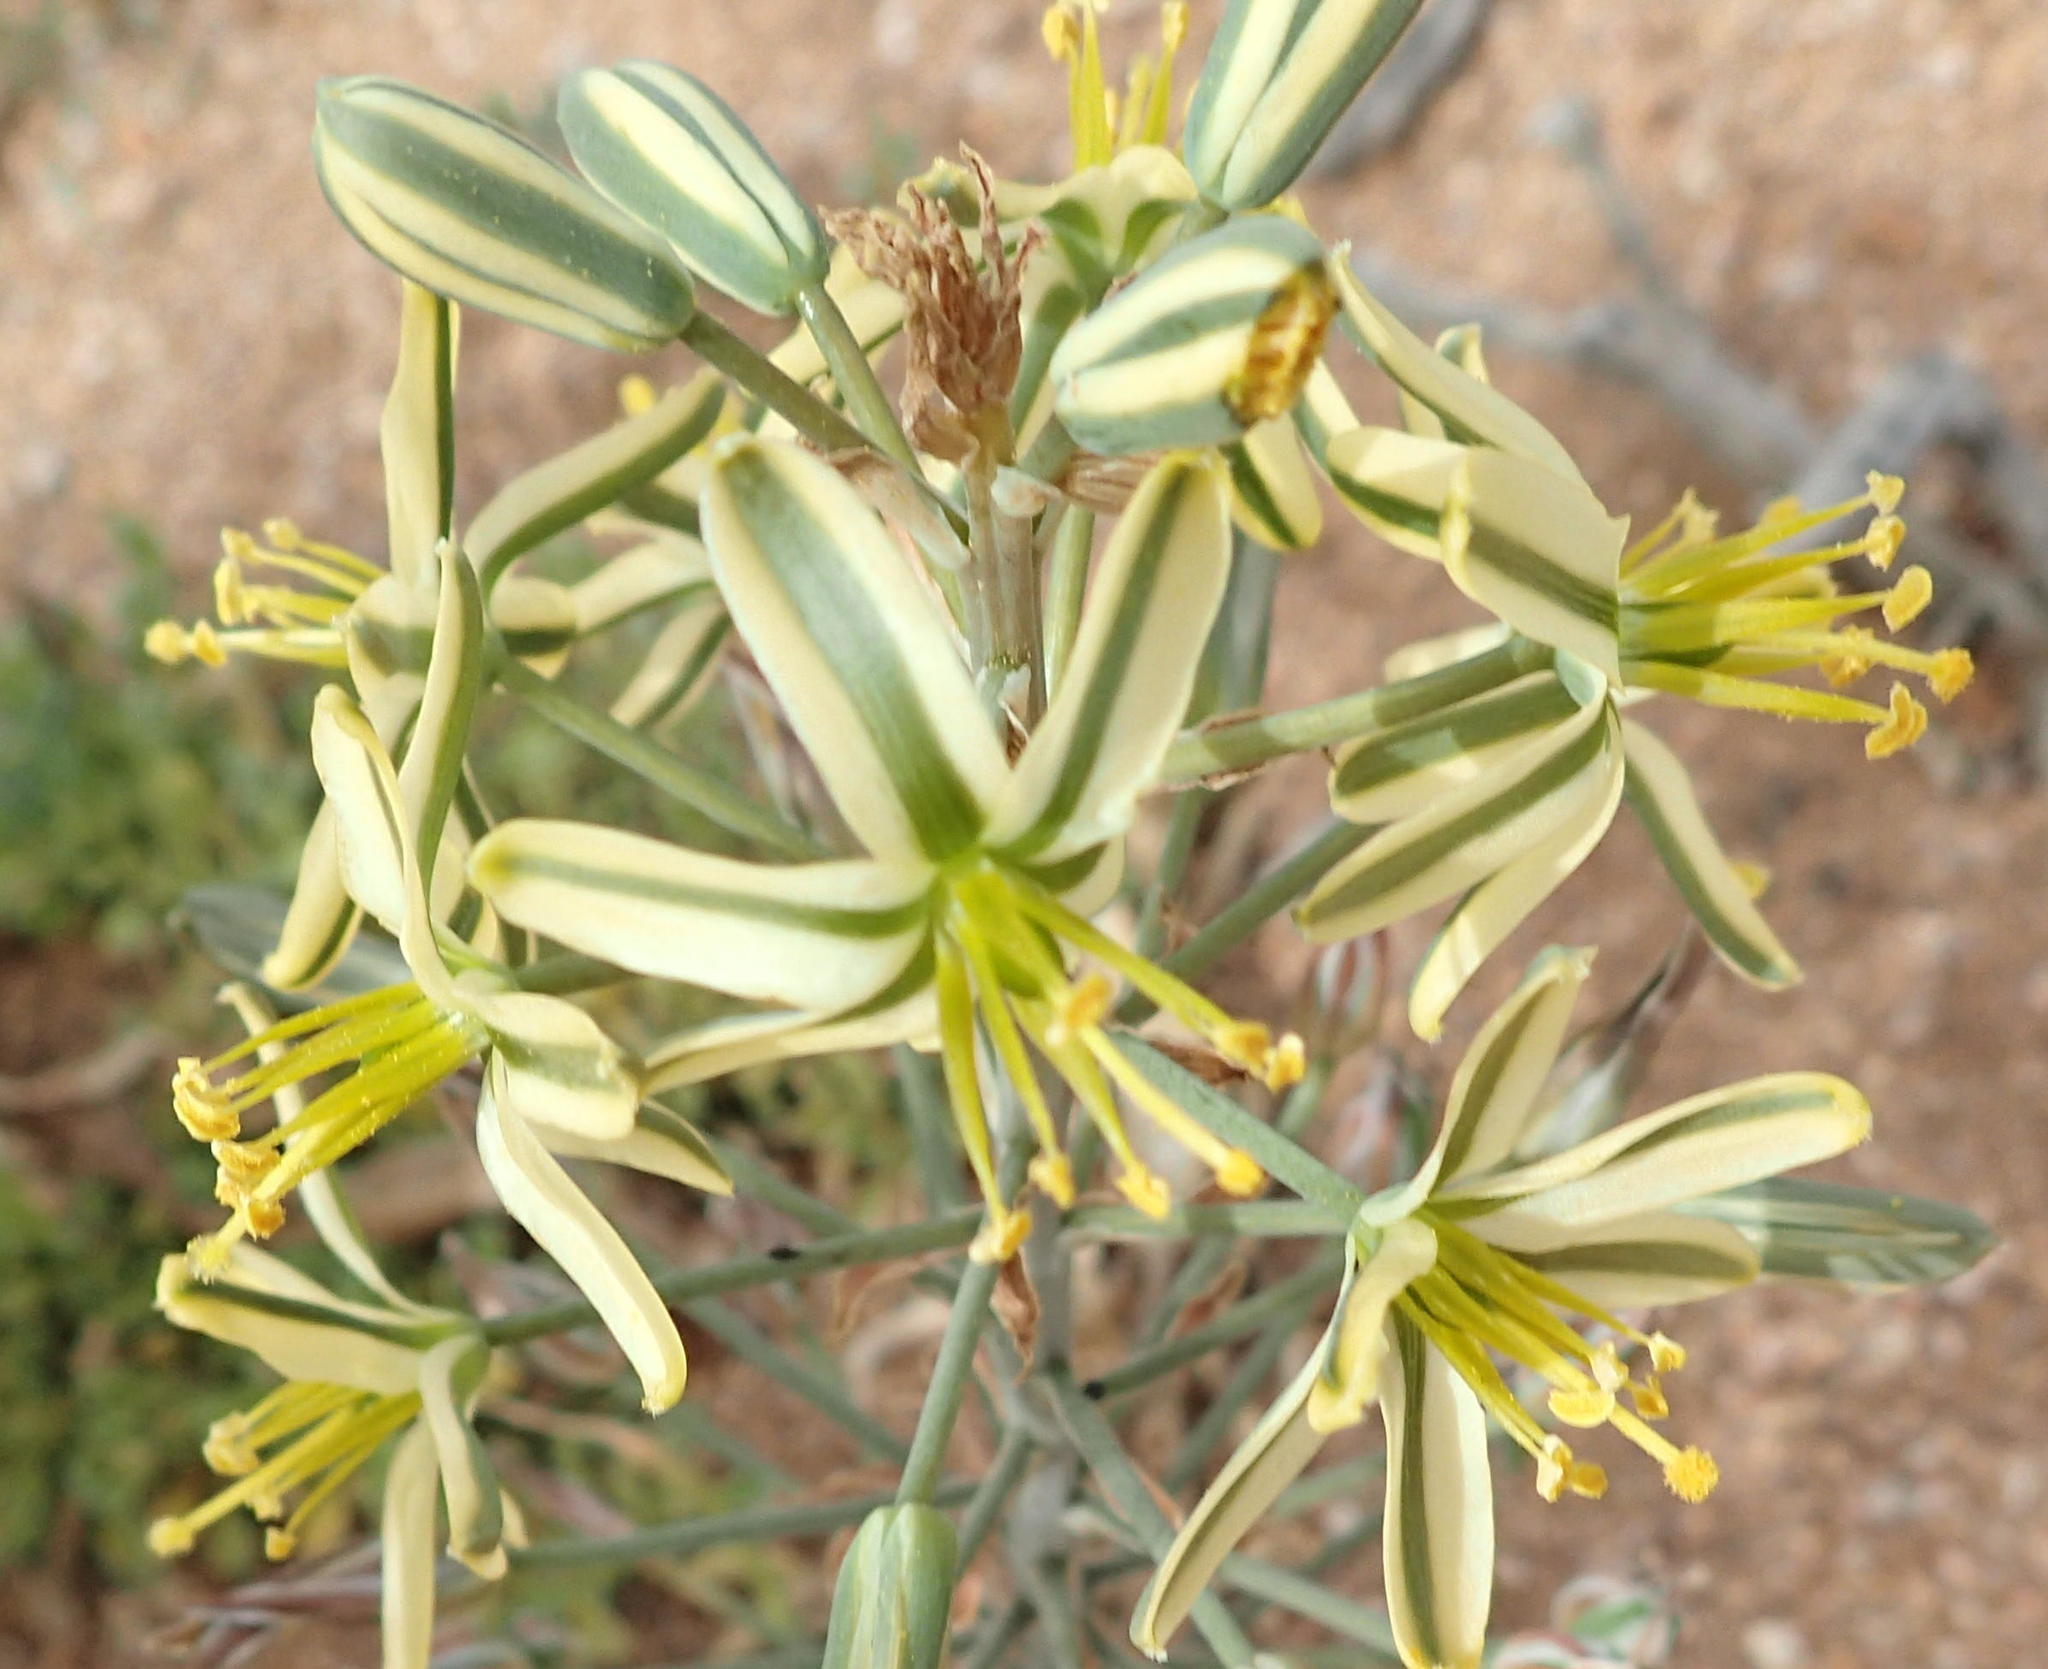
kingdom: Plantae
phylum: Tracheophyta
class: Liliopsida
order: Asparagales
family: Asparagaceae
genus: Albuca
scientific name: Albuca secunda
